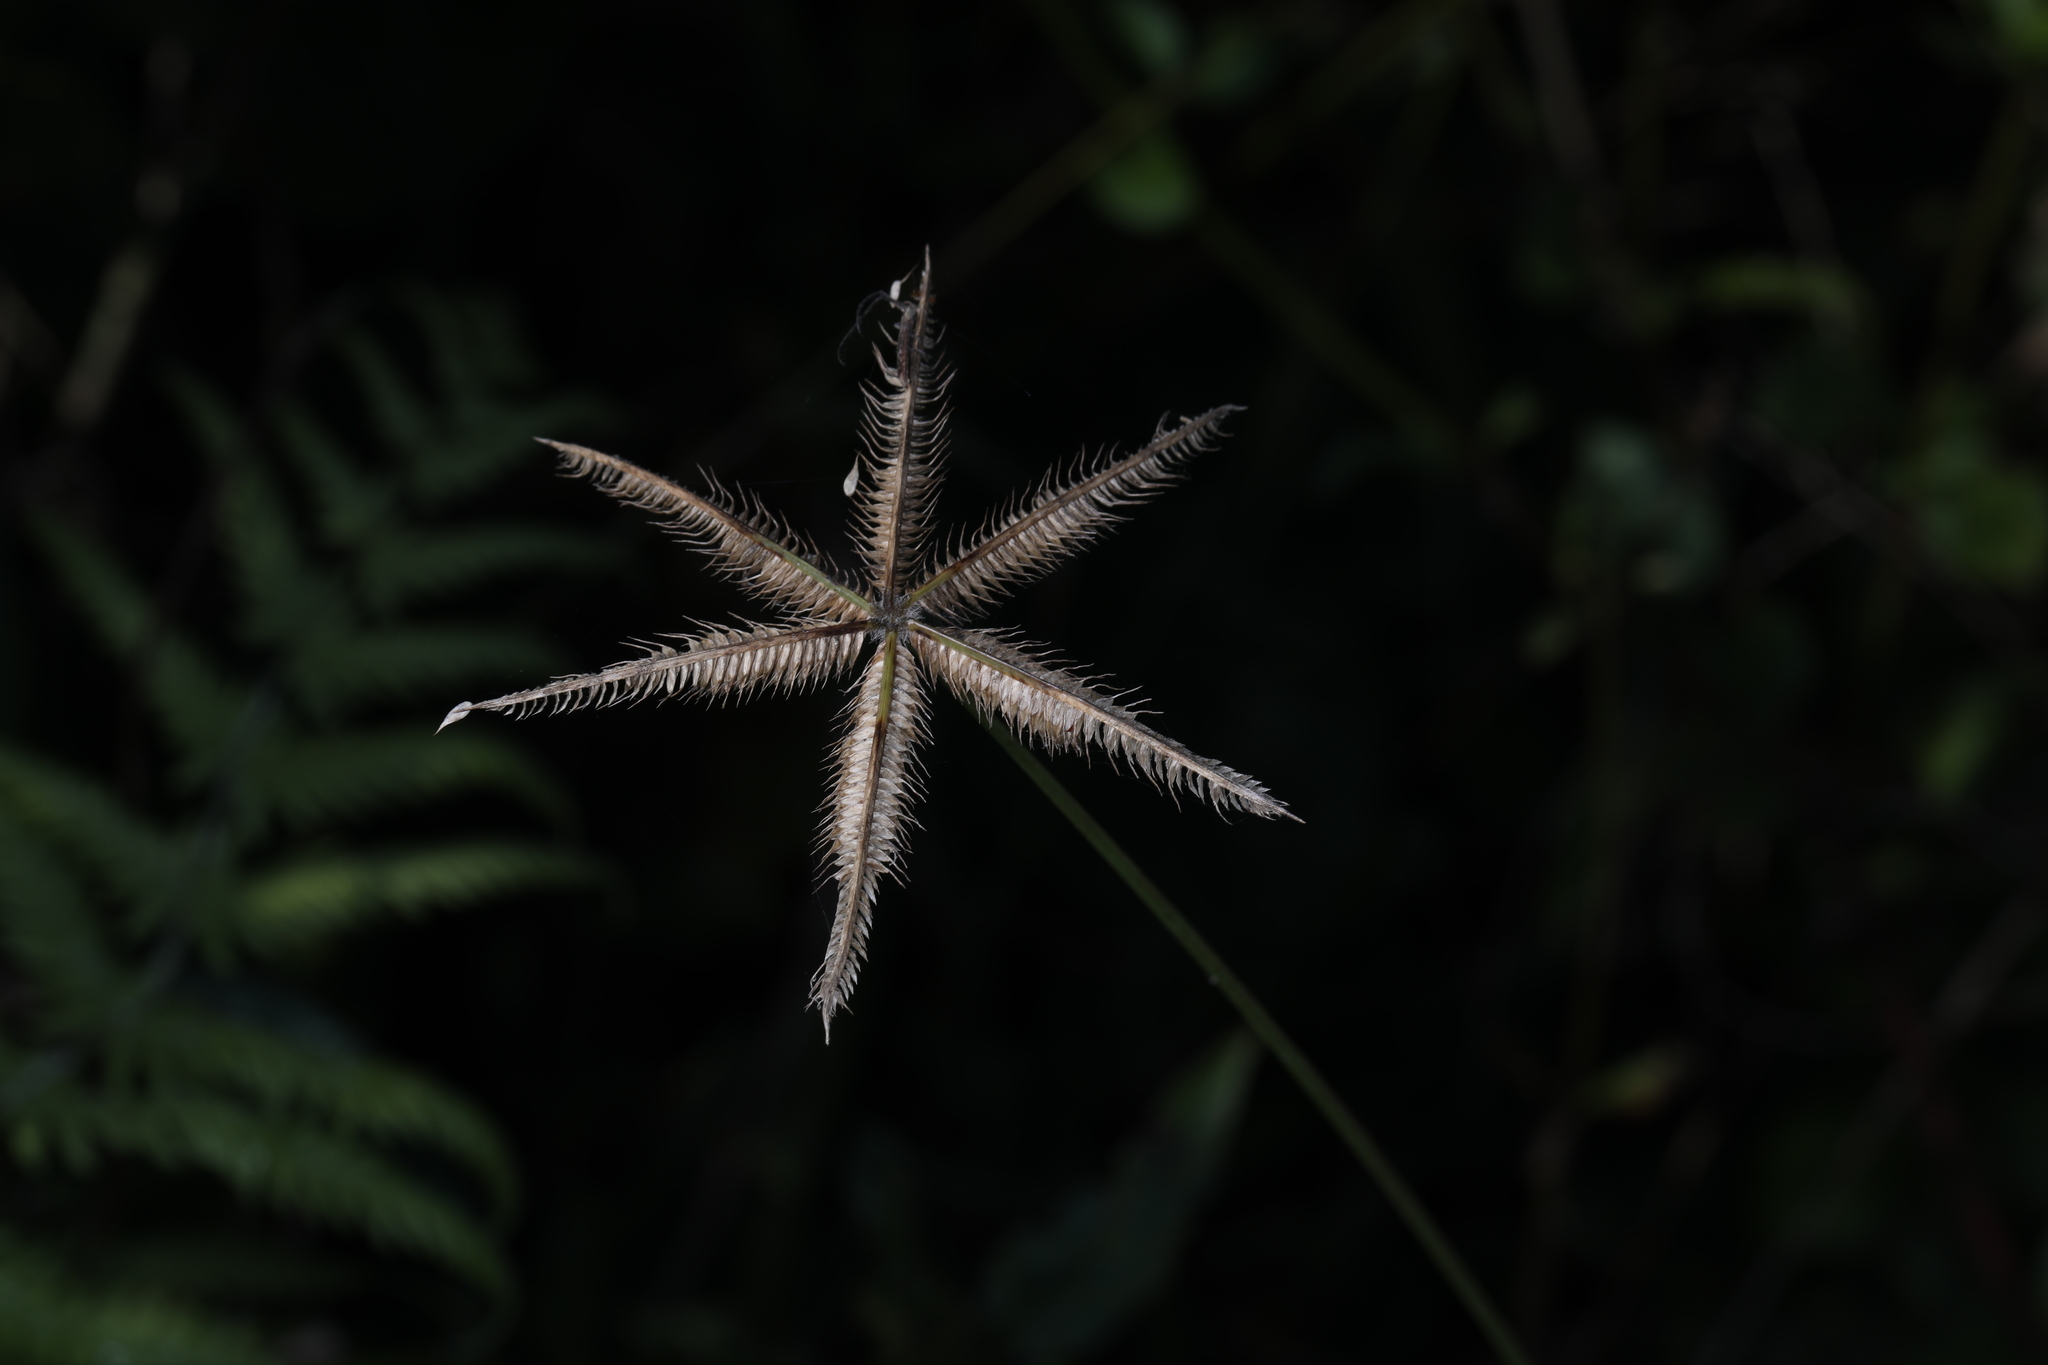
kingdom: Plantae
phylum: Tracheophyta
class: Liliopsida
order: Poales
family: Poaceae
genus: Dactyloctenium
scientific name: Dactyloctenium aegyptium
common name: Egyptian grass
